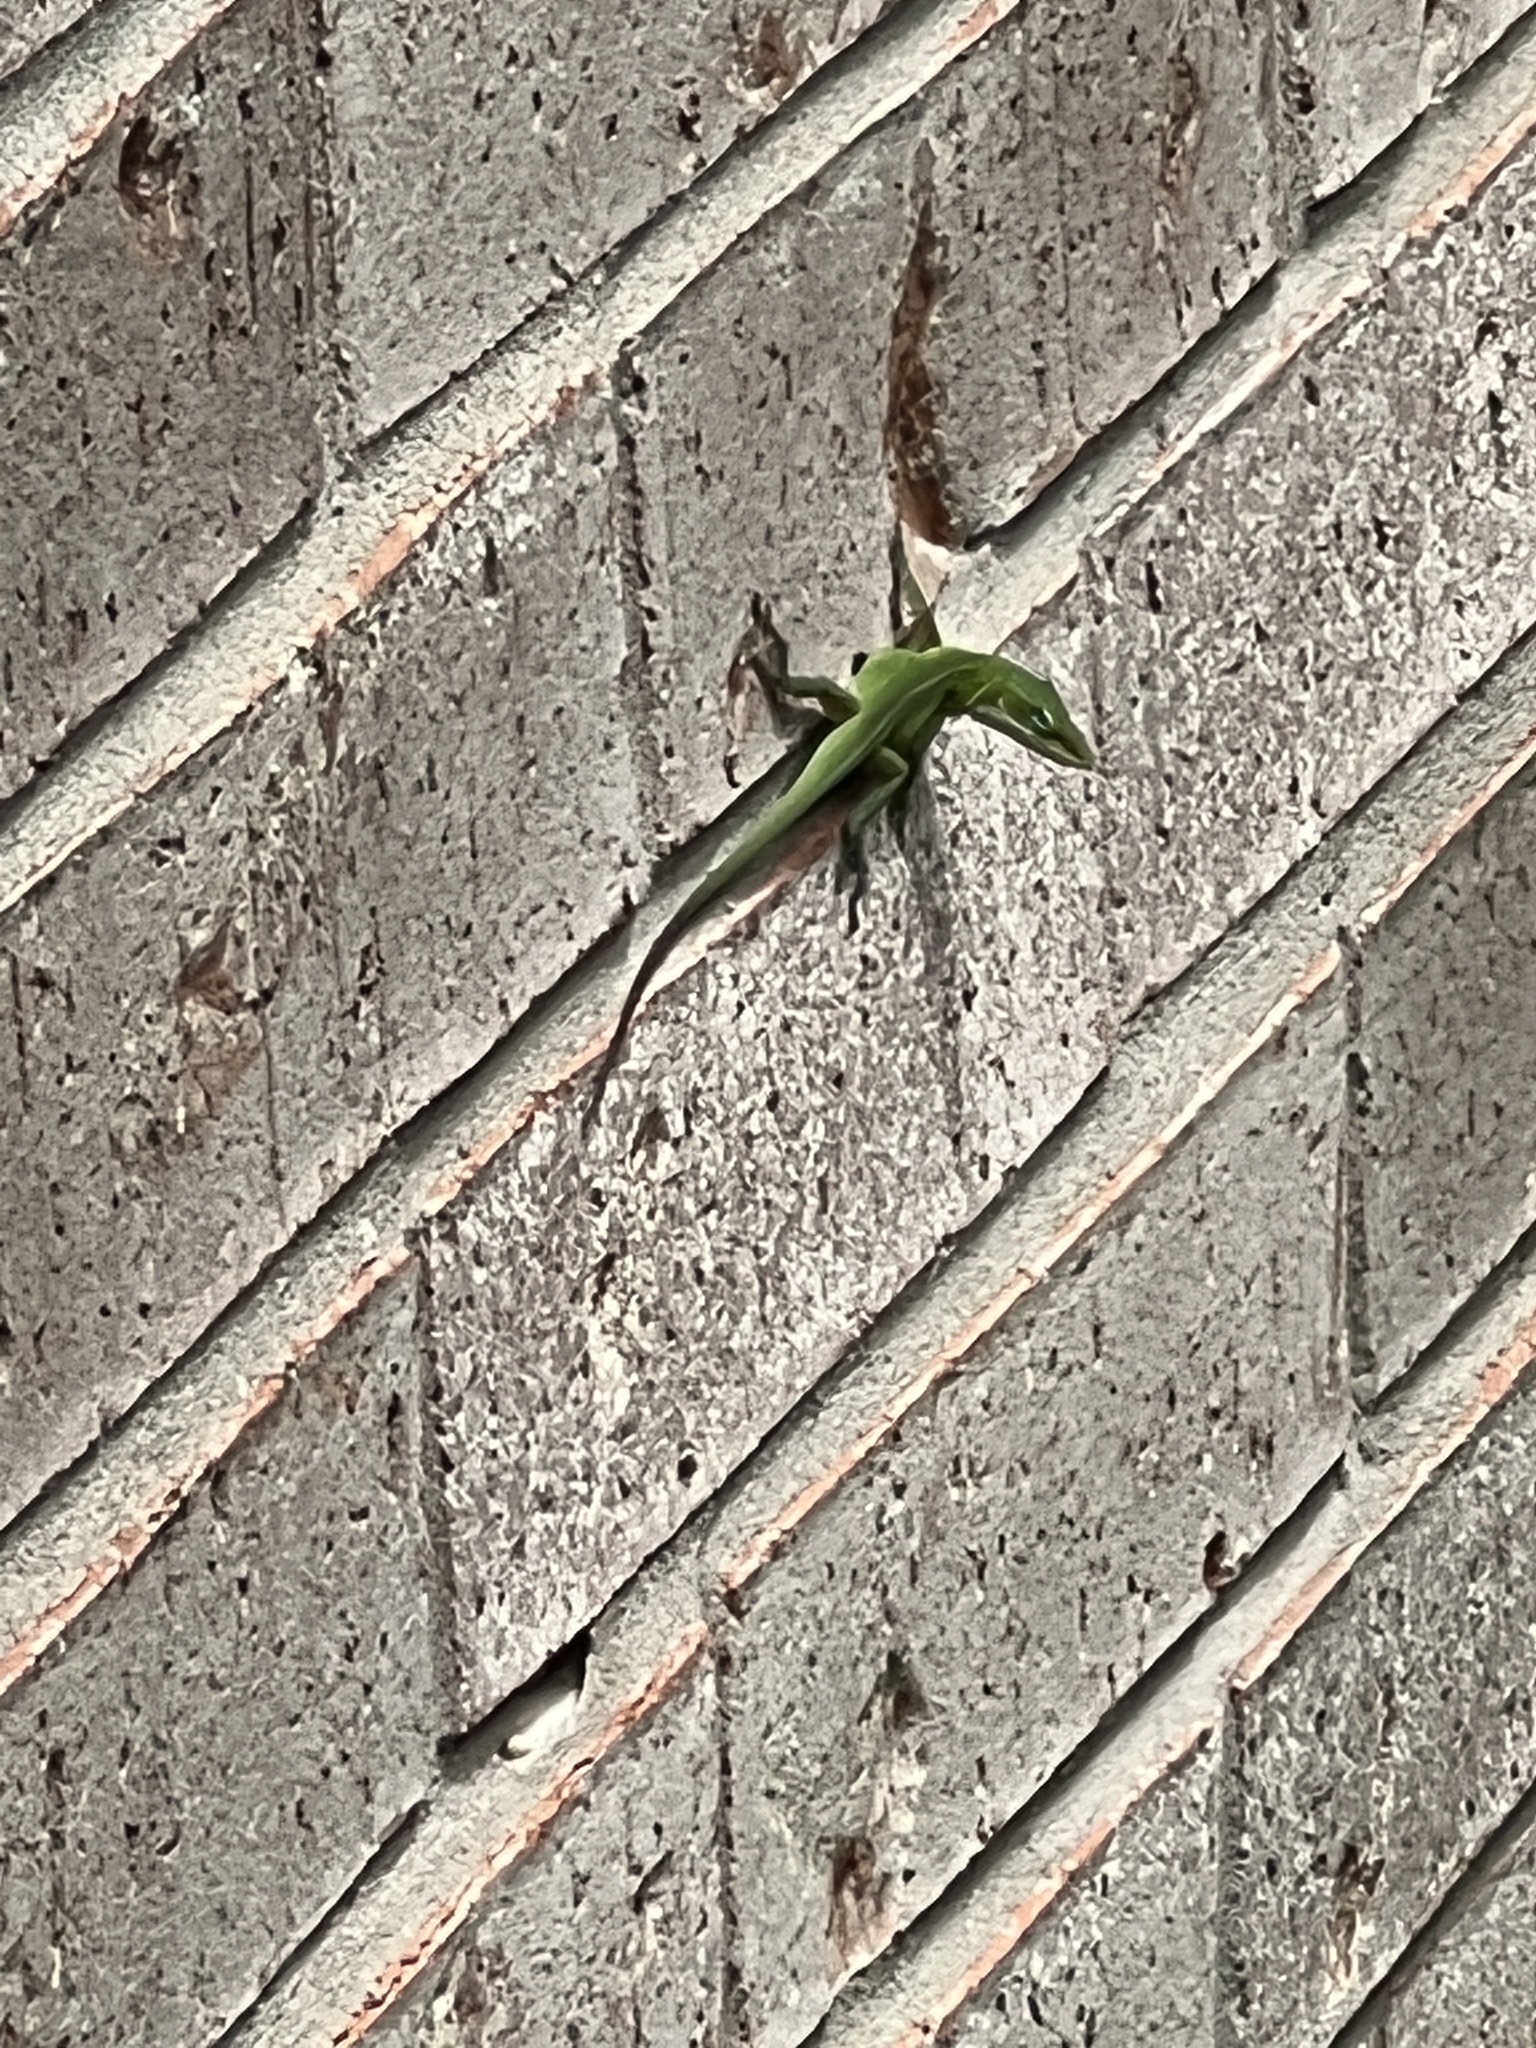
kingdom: Animalia
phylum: Chordata
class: Squamata
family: Dactyloidae
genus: Anolis
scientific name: Anolis carolinensis
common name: Green anole
